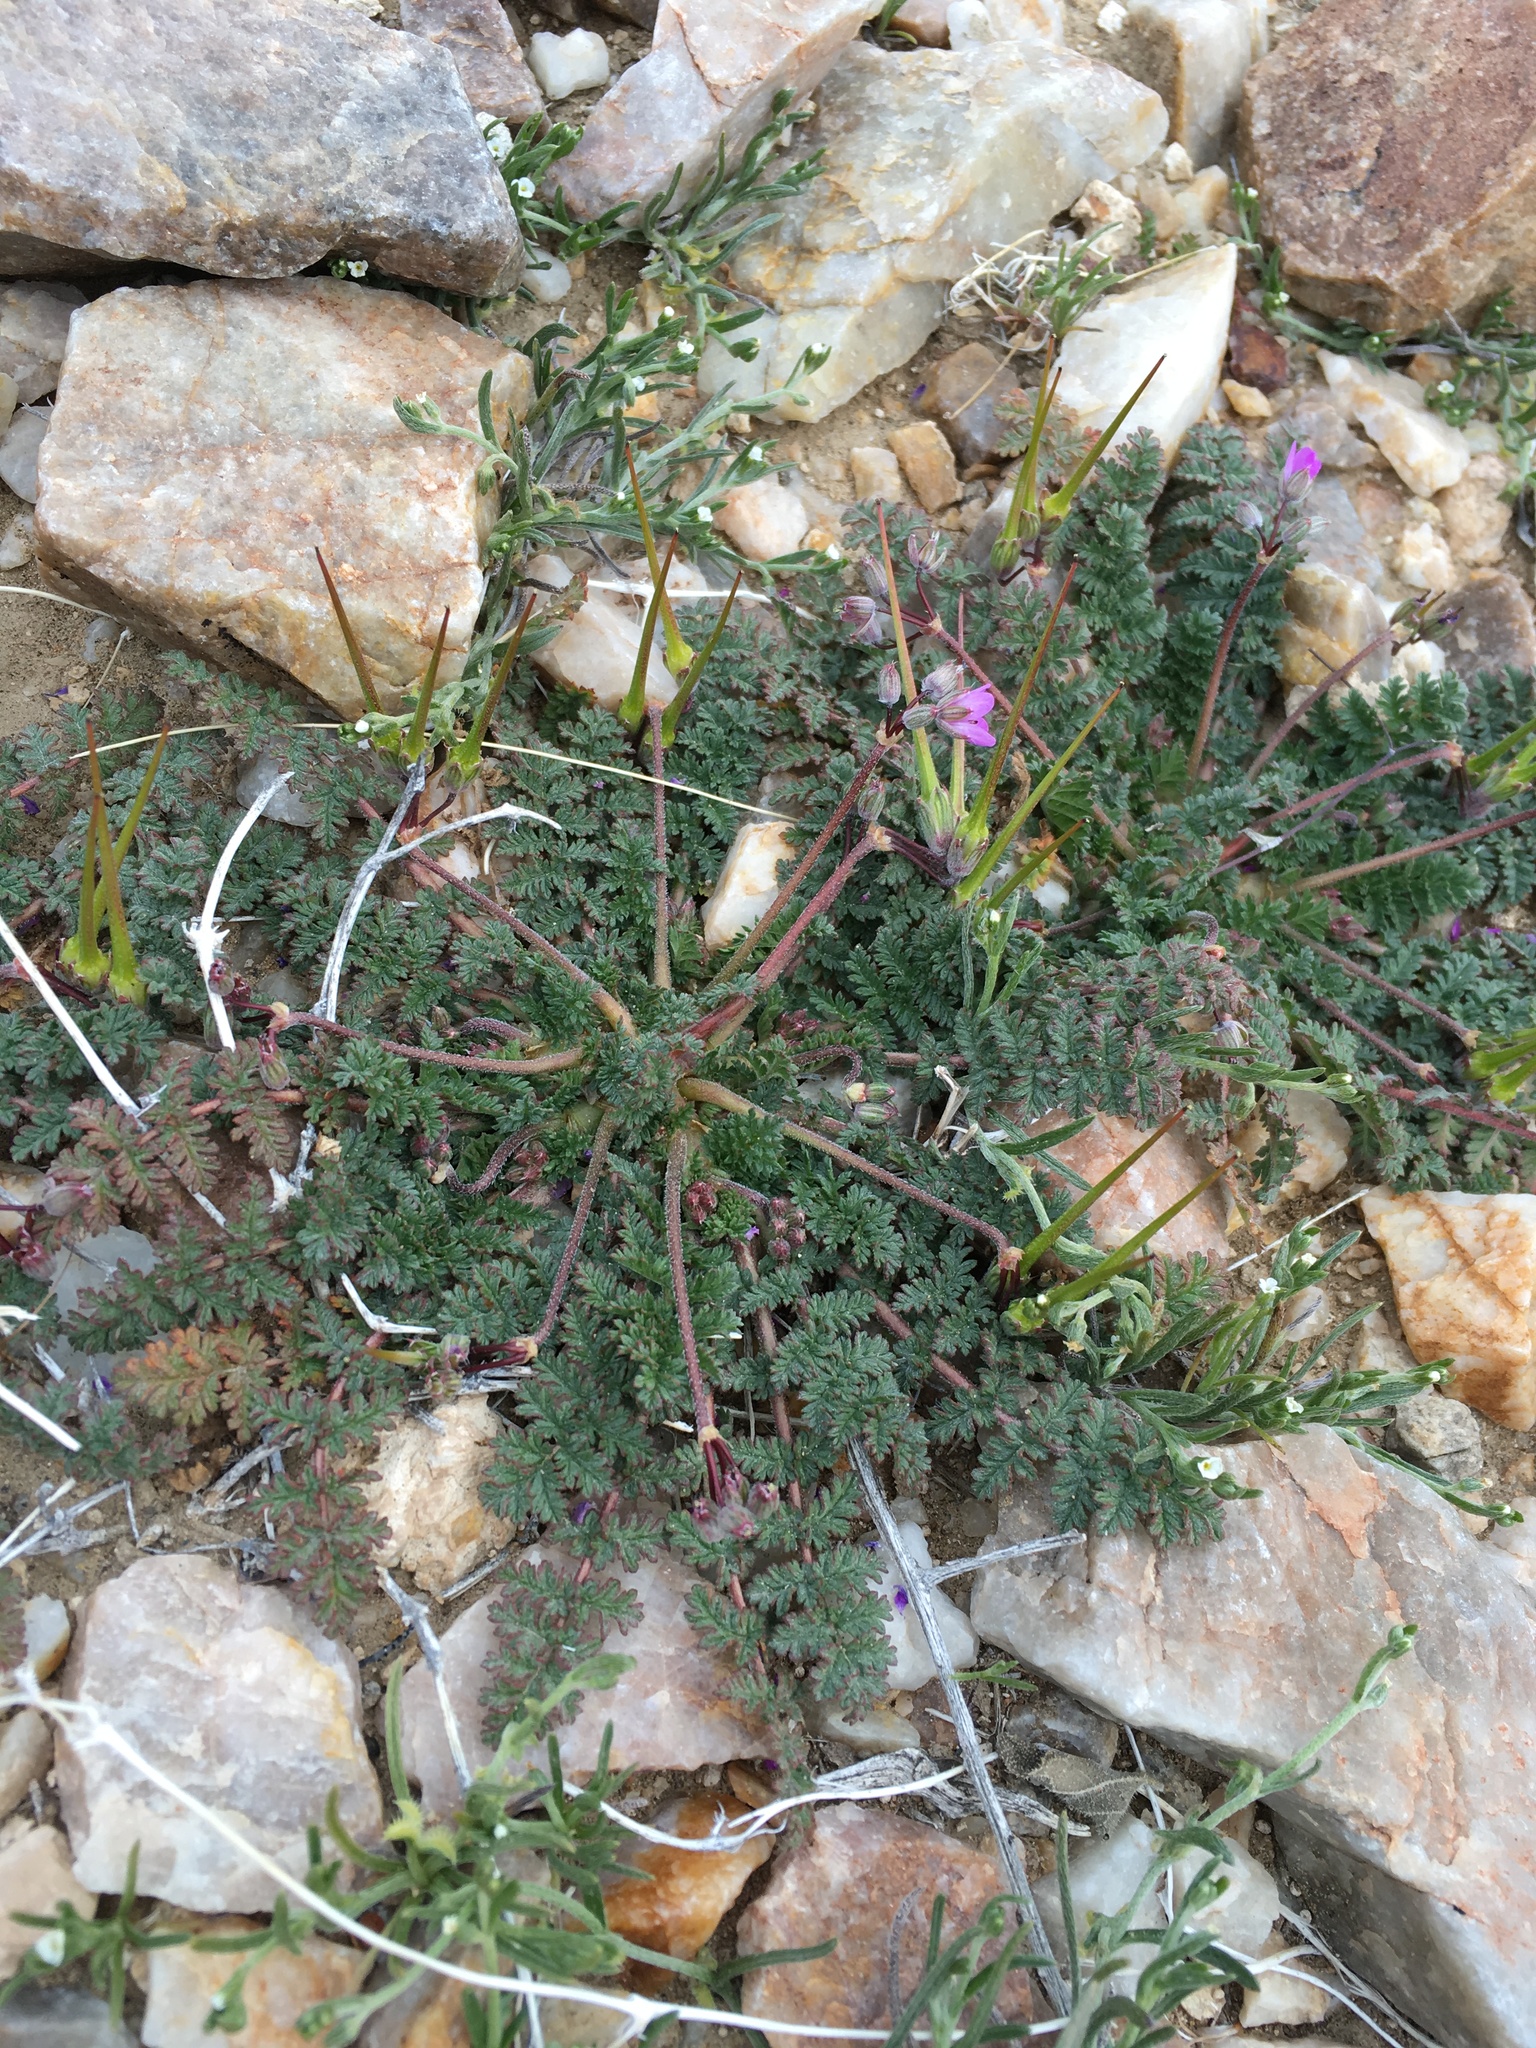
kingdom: Plantae
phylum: Tracheophyta
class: Magnoliopsida
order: Geraniales
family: Geraniaceae
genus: Erodium
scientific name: Erodium cicutarium
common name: Common stork's-bill
